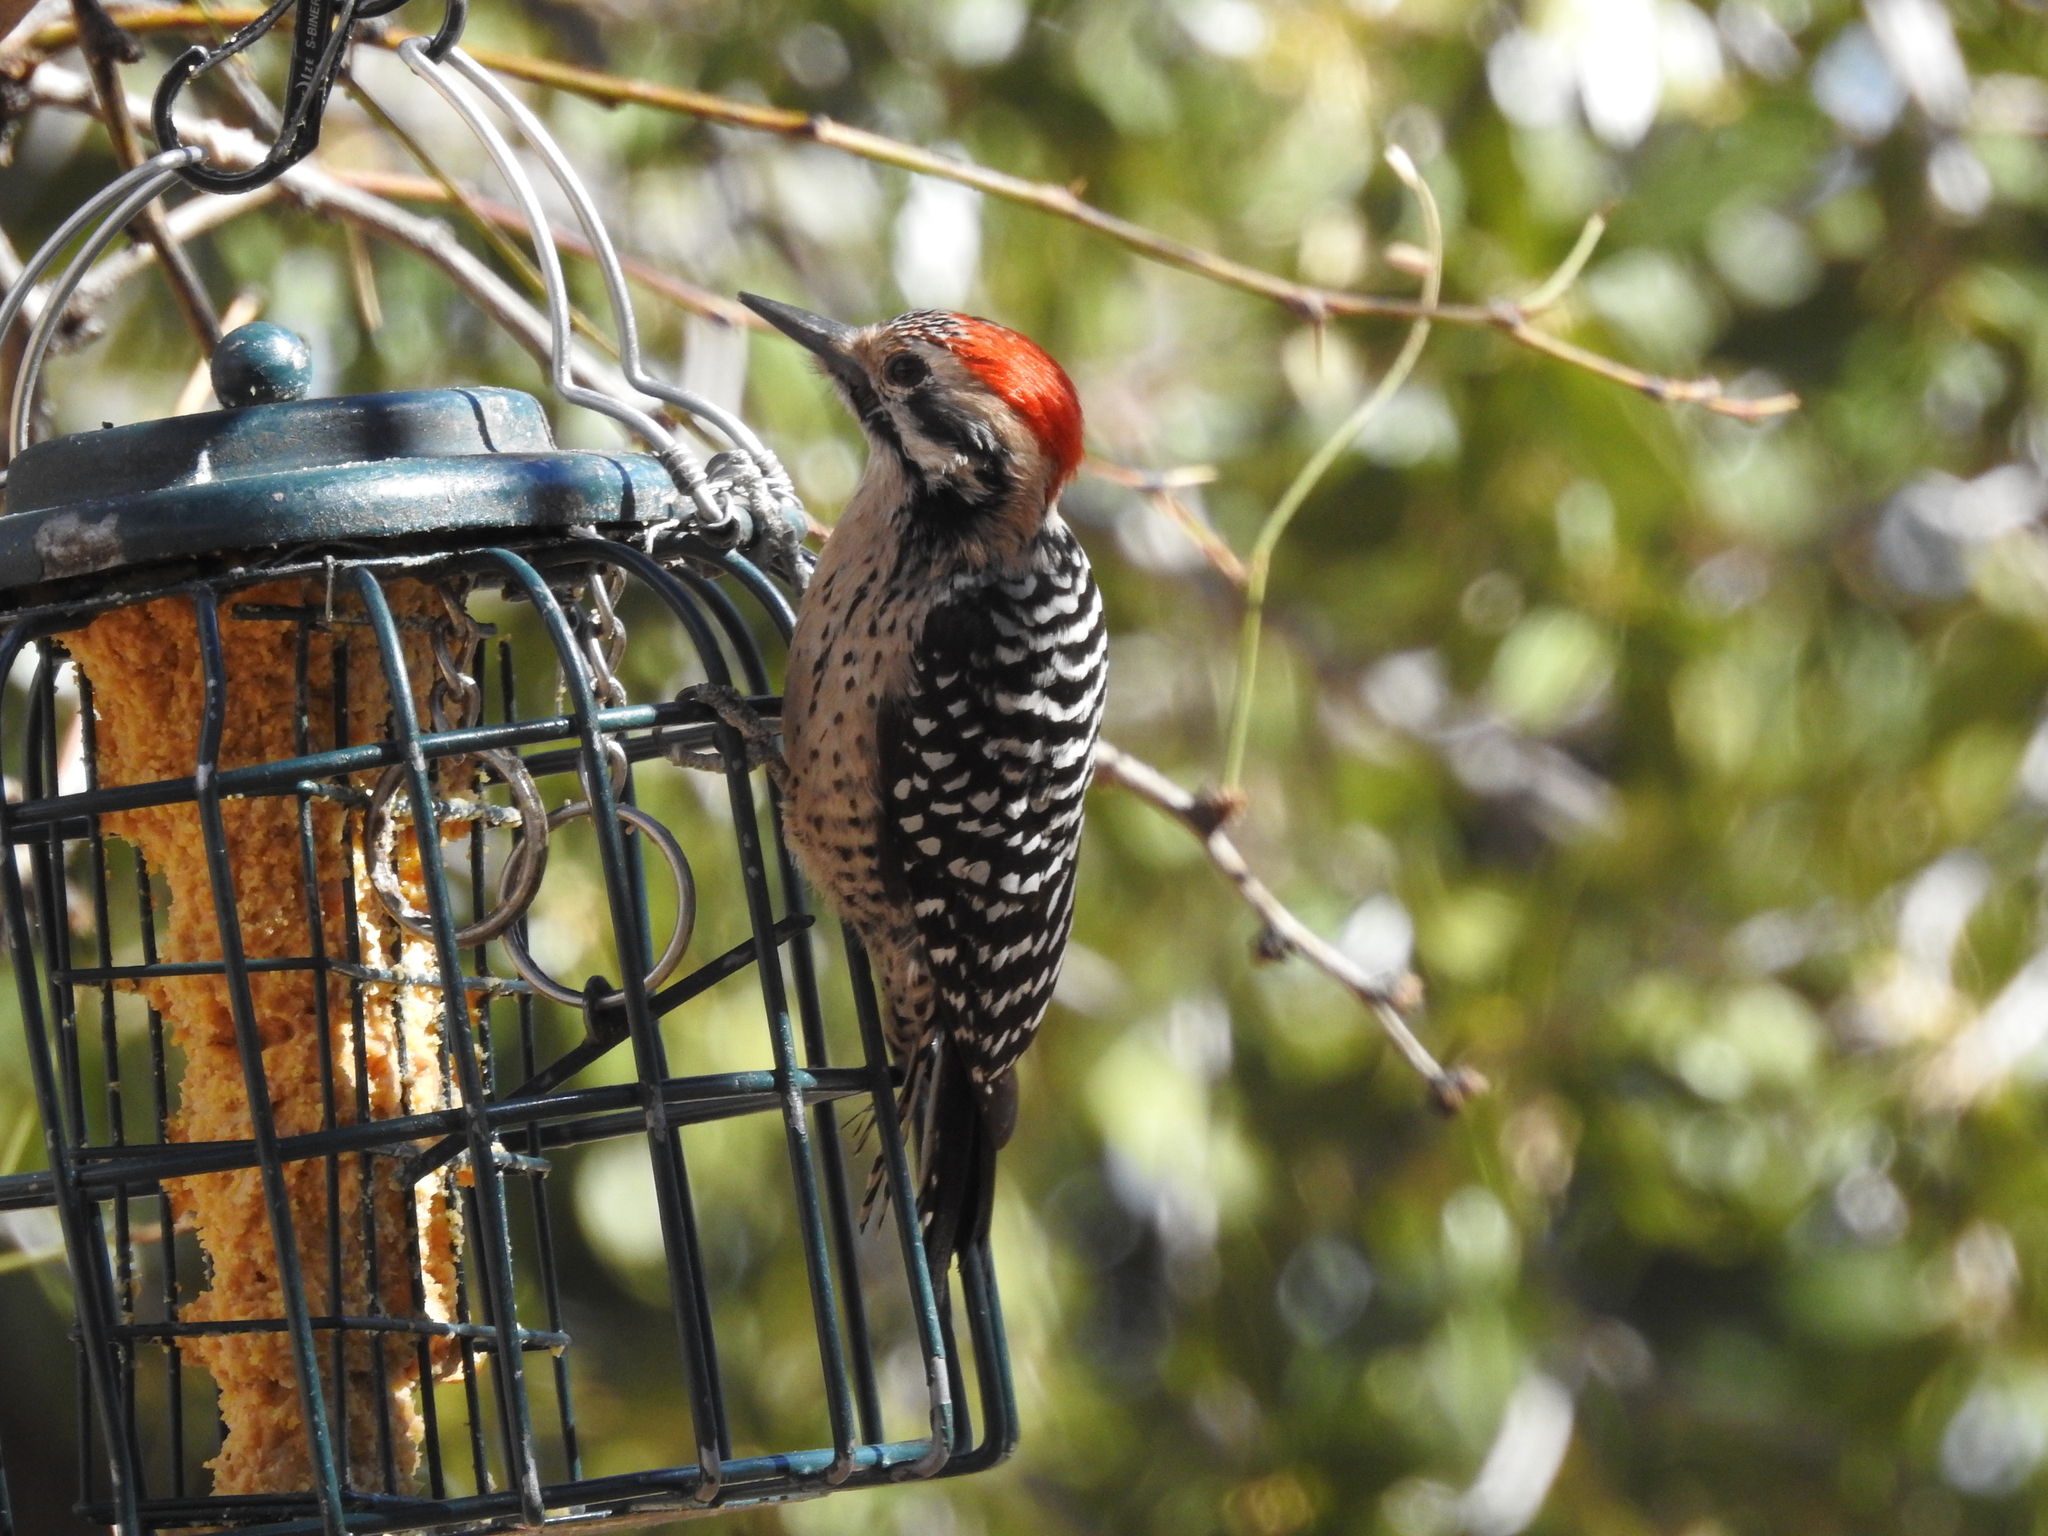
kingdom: Animalia
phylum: Chordata
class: Aves
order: Piciformes
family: Picidae
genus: Dryobates
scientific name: Dryobates scalaris
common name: Ladder-backed woodpecker
